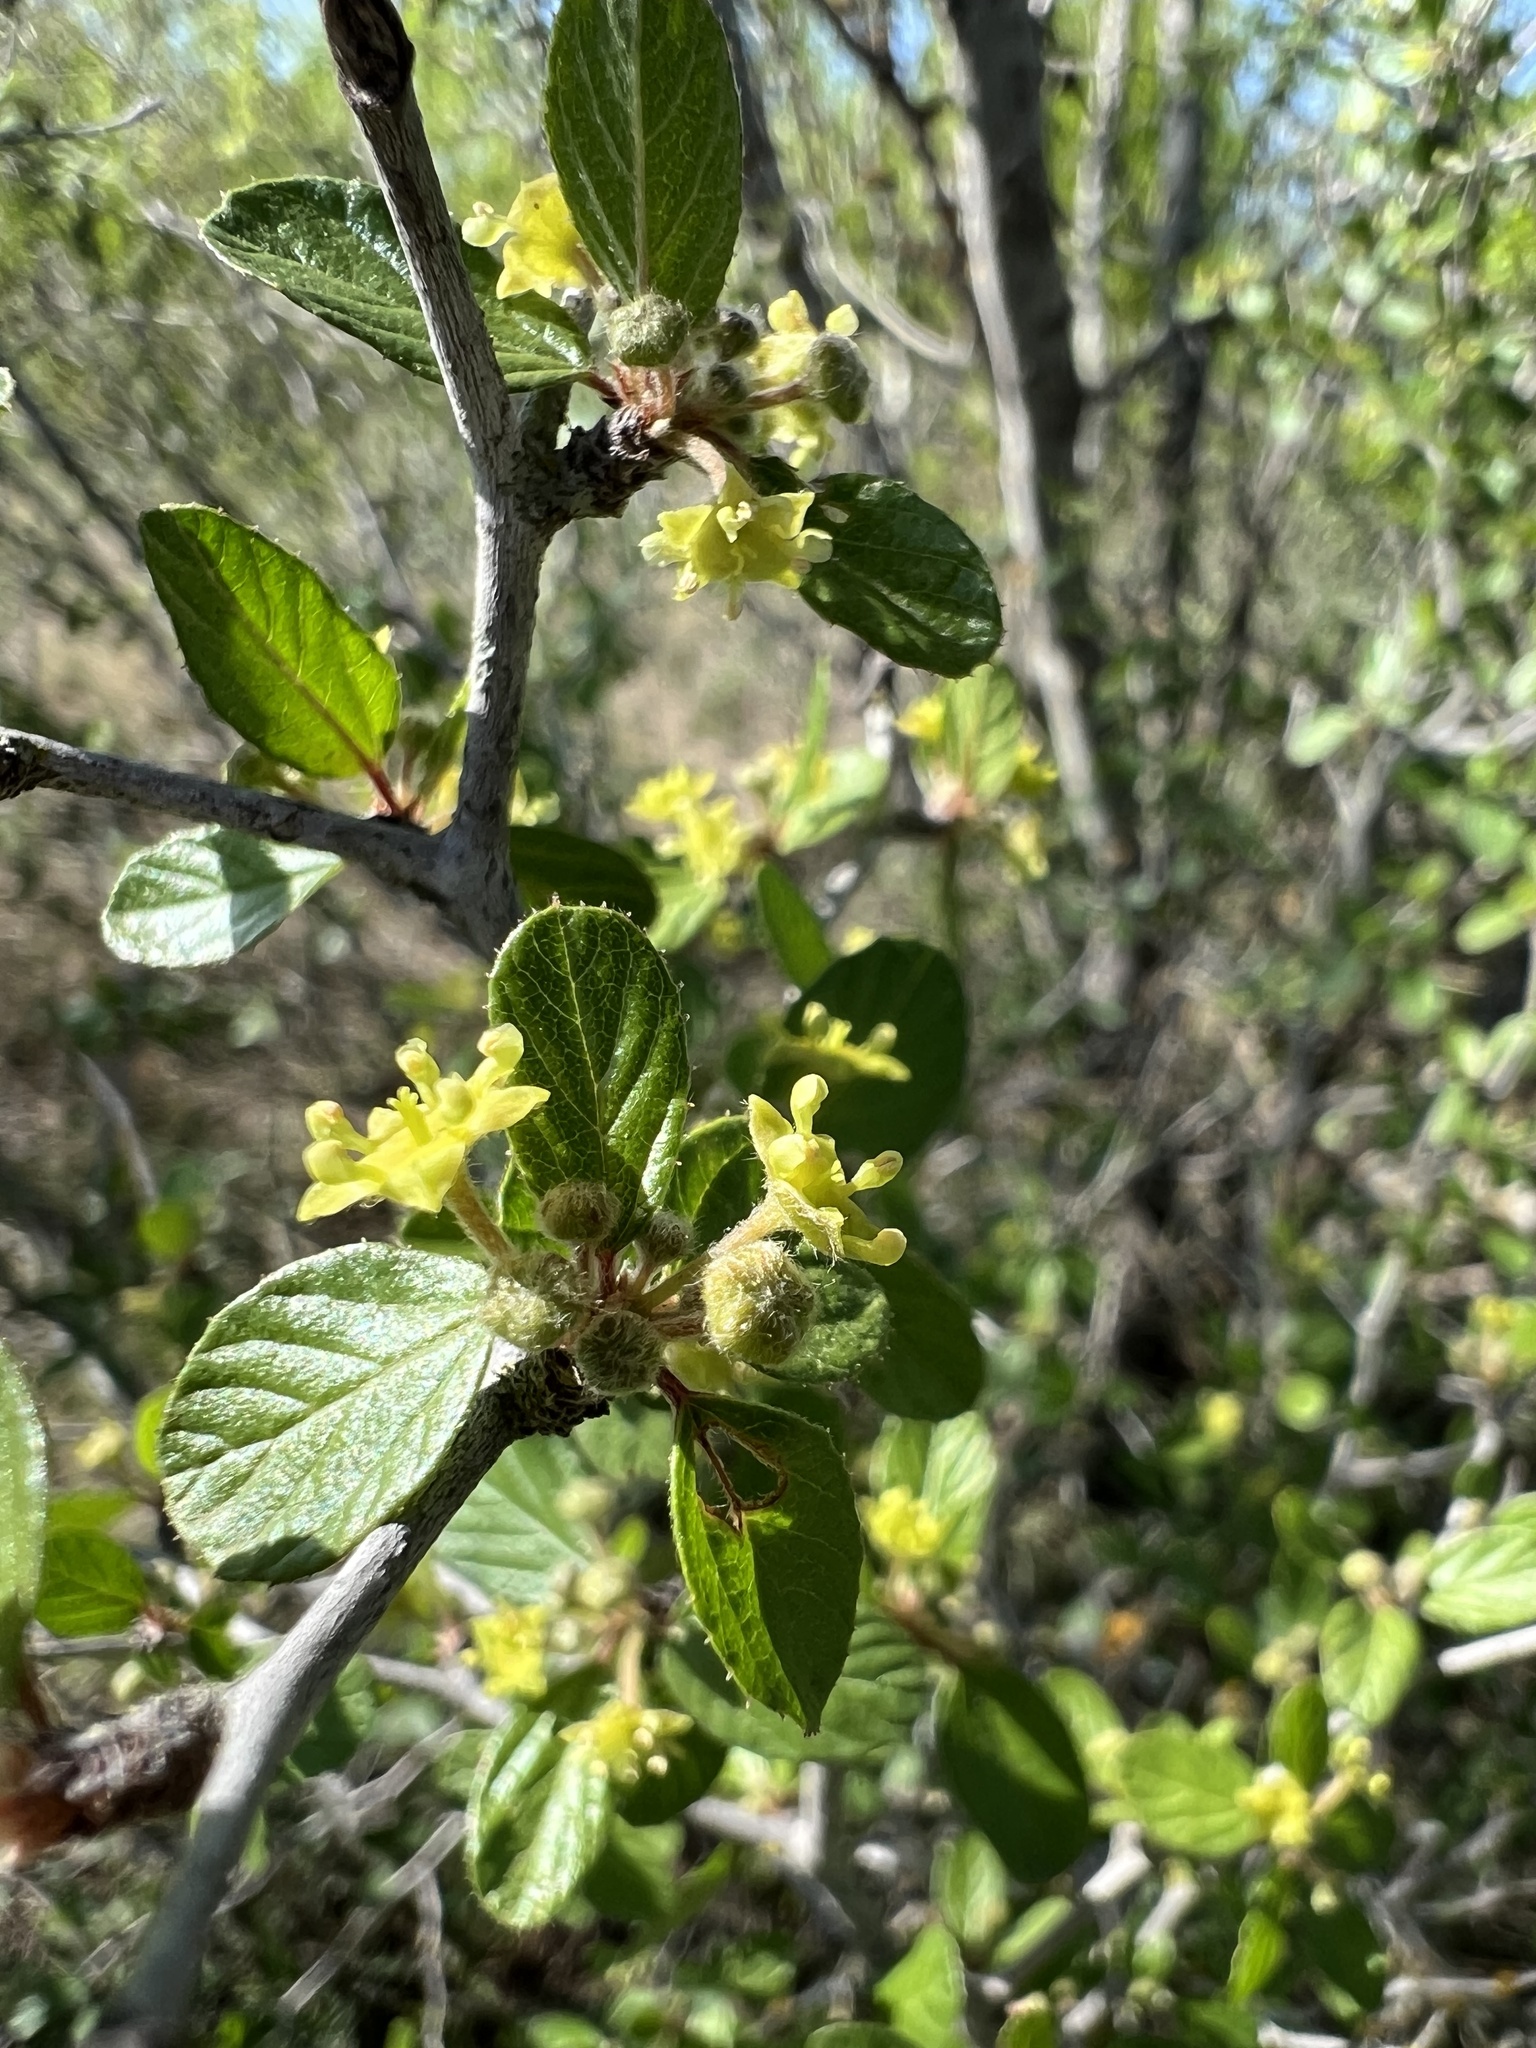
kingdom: Plantae
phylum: Tracheophyta
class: Magnoliopsida
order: Rosales
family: Rhamnaceae
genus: Colubrina
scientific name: Colubrina texensis
